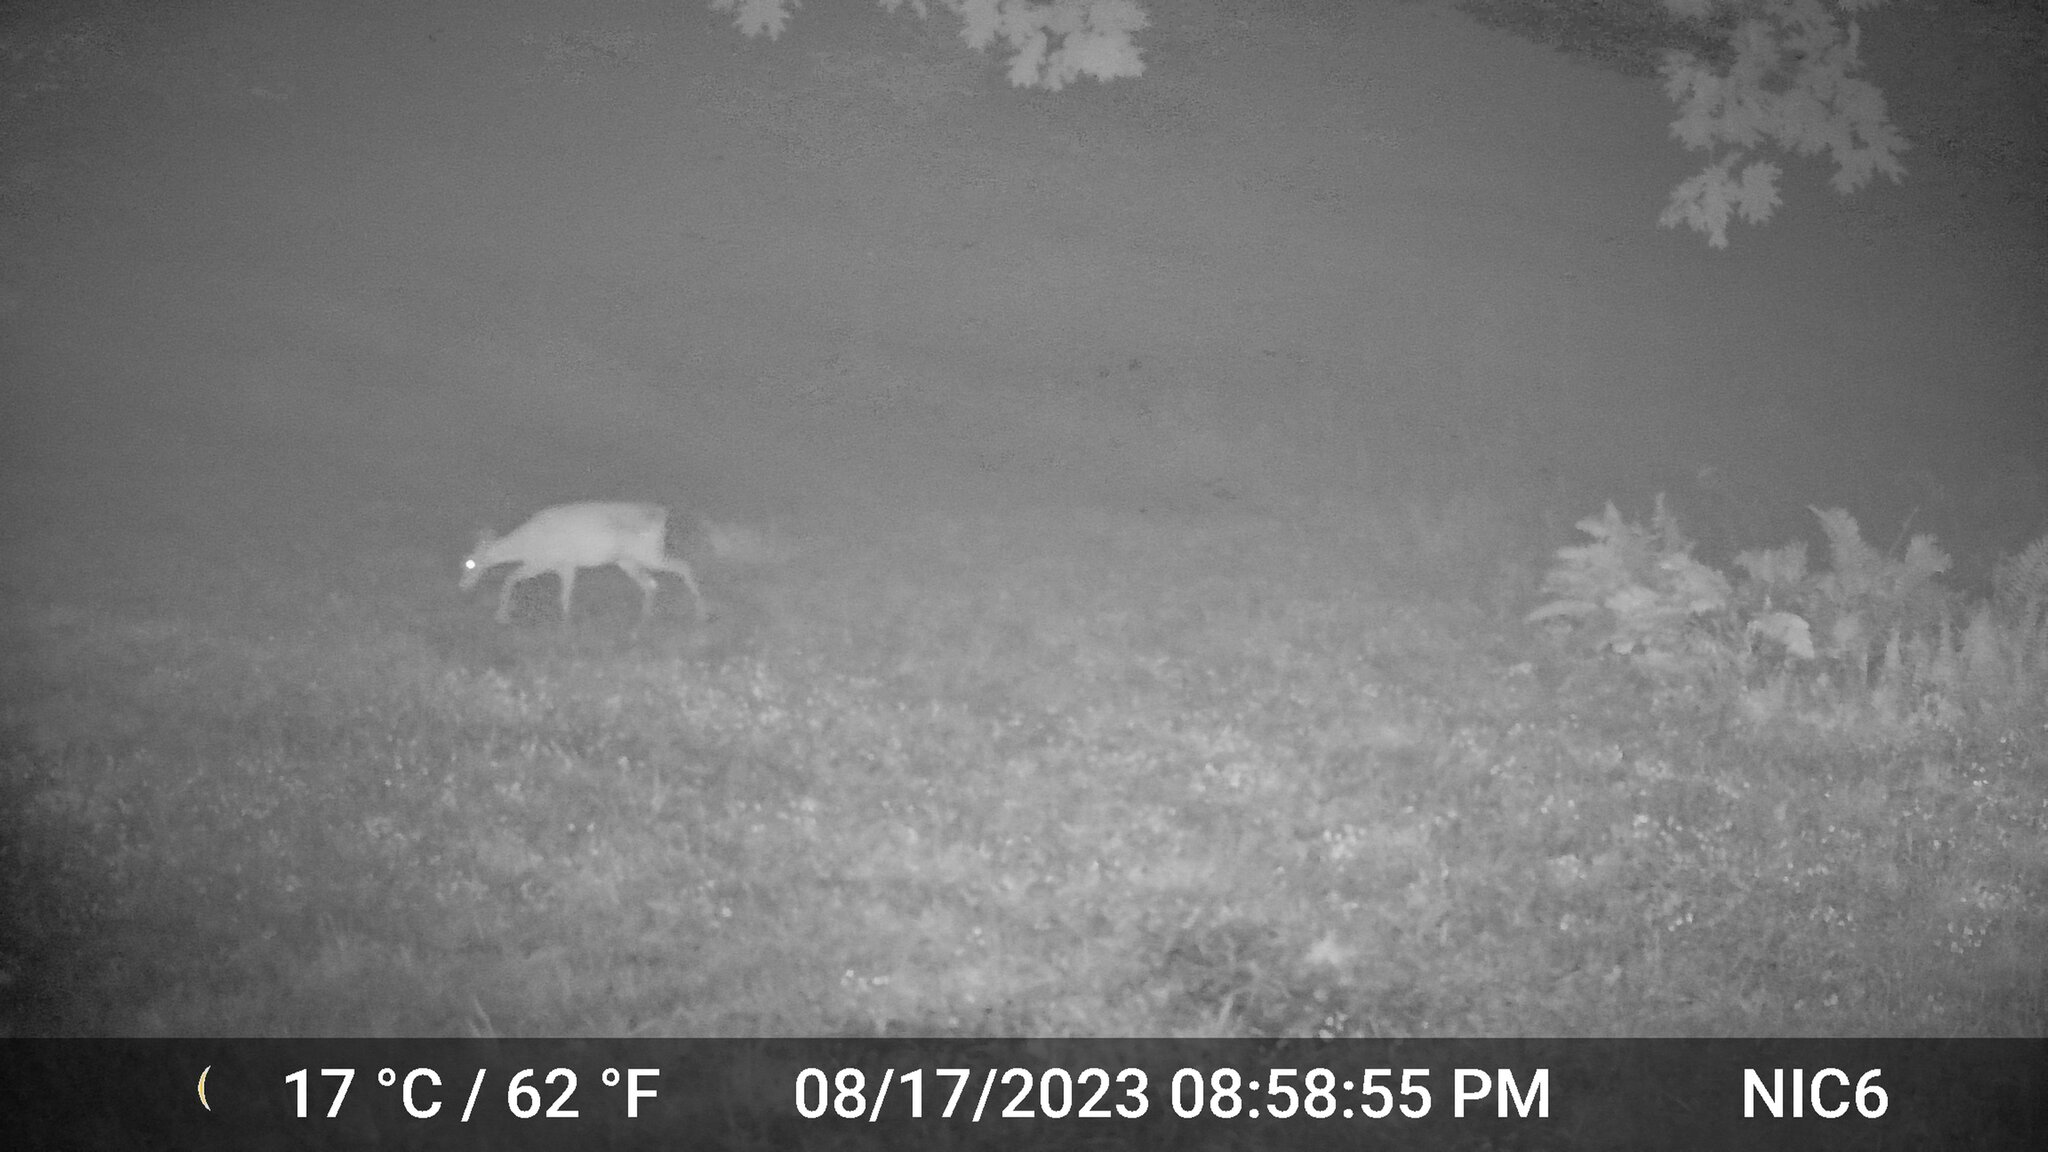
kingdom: Animalia
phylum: Chordata
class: Mammalia
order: Artiodactyla
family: Cervidae
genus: Odocoileus
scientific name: Odocoileus virginianus
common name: White-tailed deer
